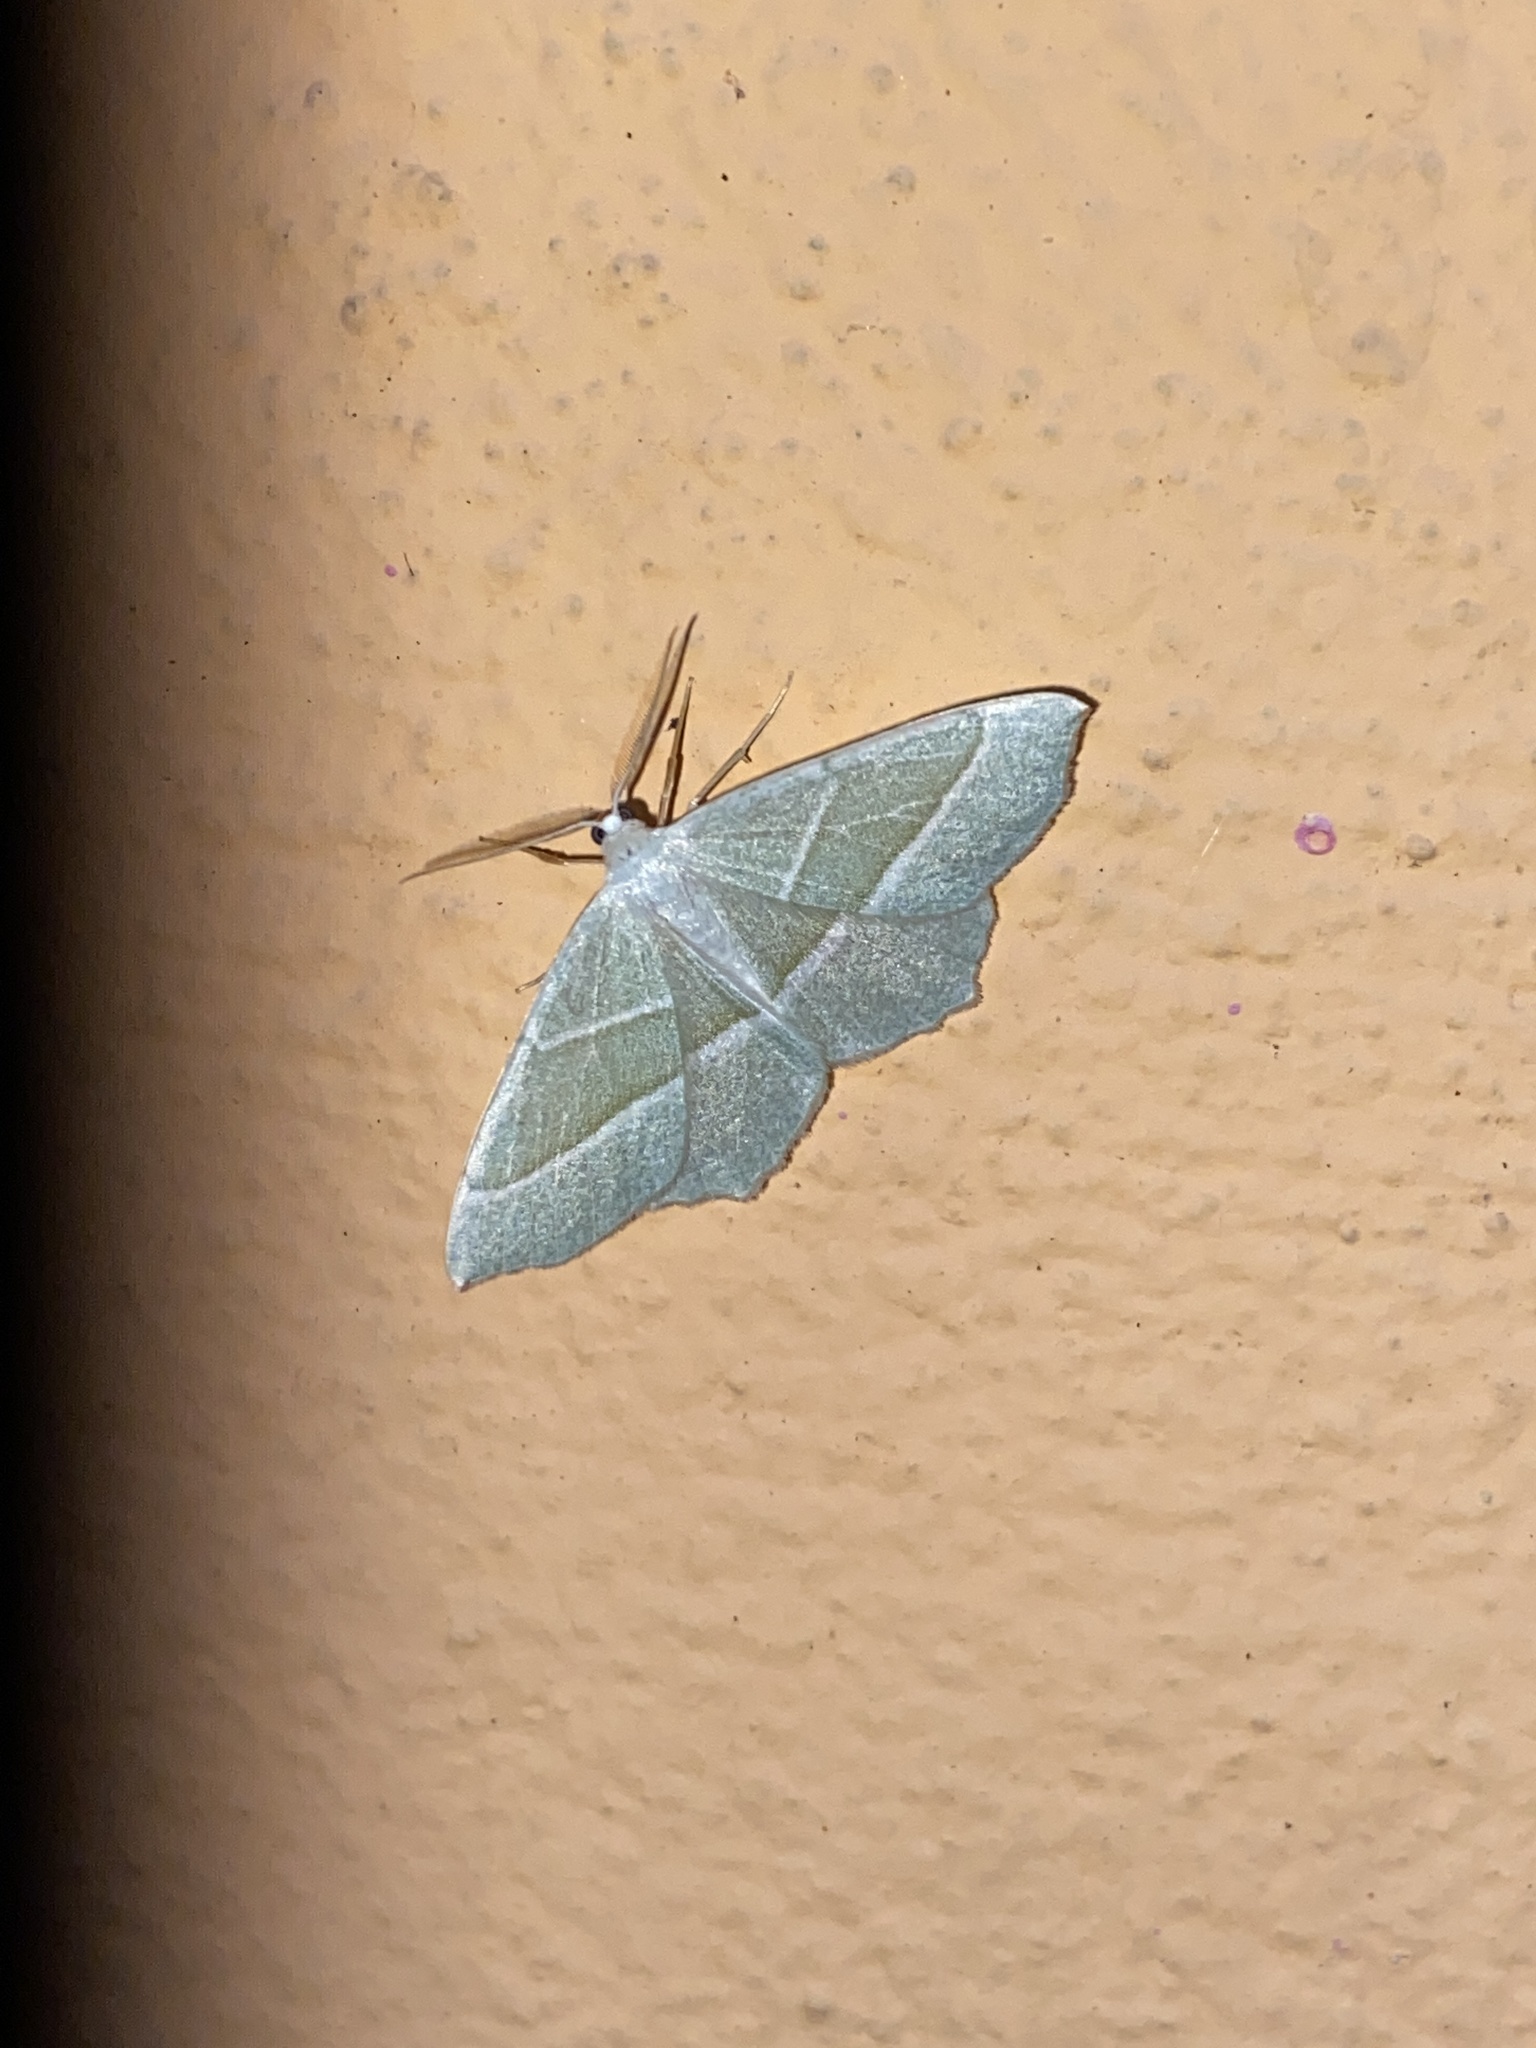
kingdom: Animalia
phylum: Arthropoda
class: Insecta
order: Lepidoptera
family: Geometridae
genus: Campaea
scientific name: Campaea margaritaria
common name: Light emerald
